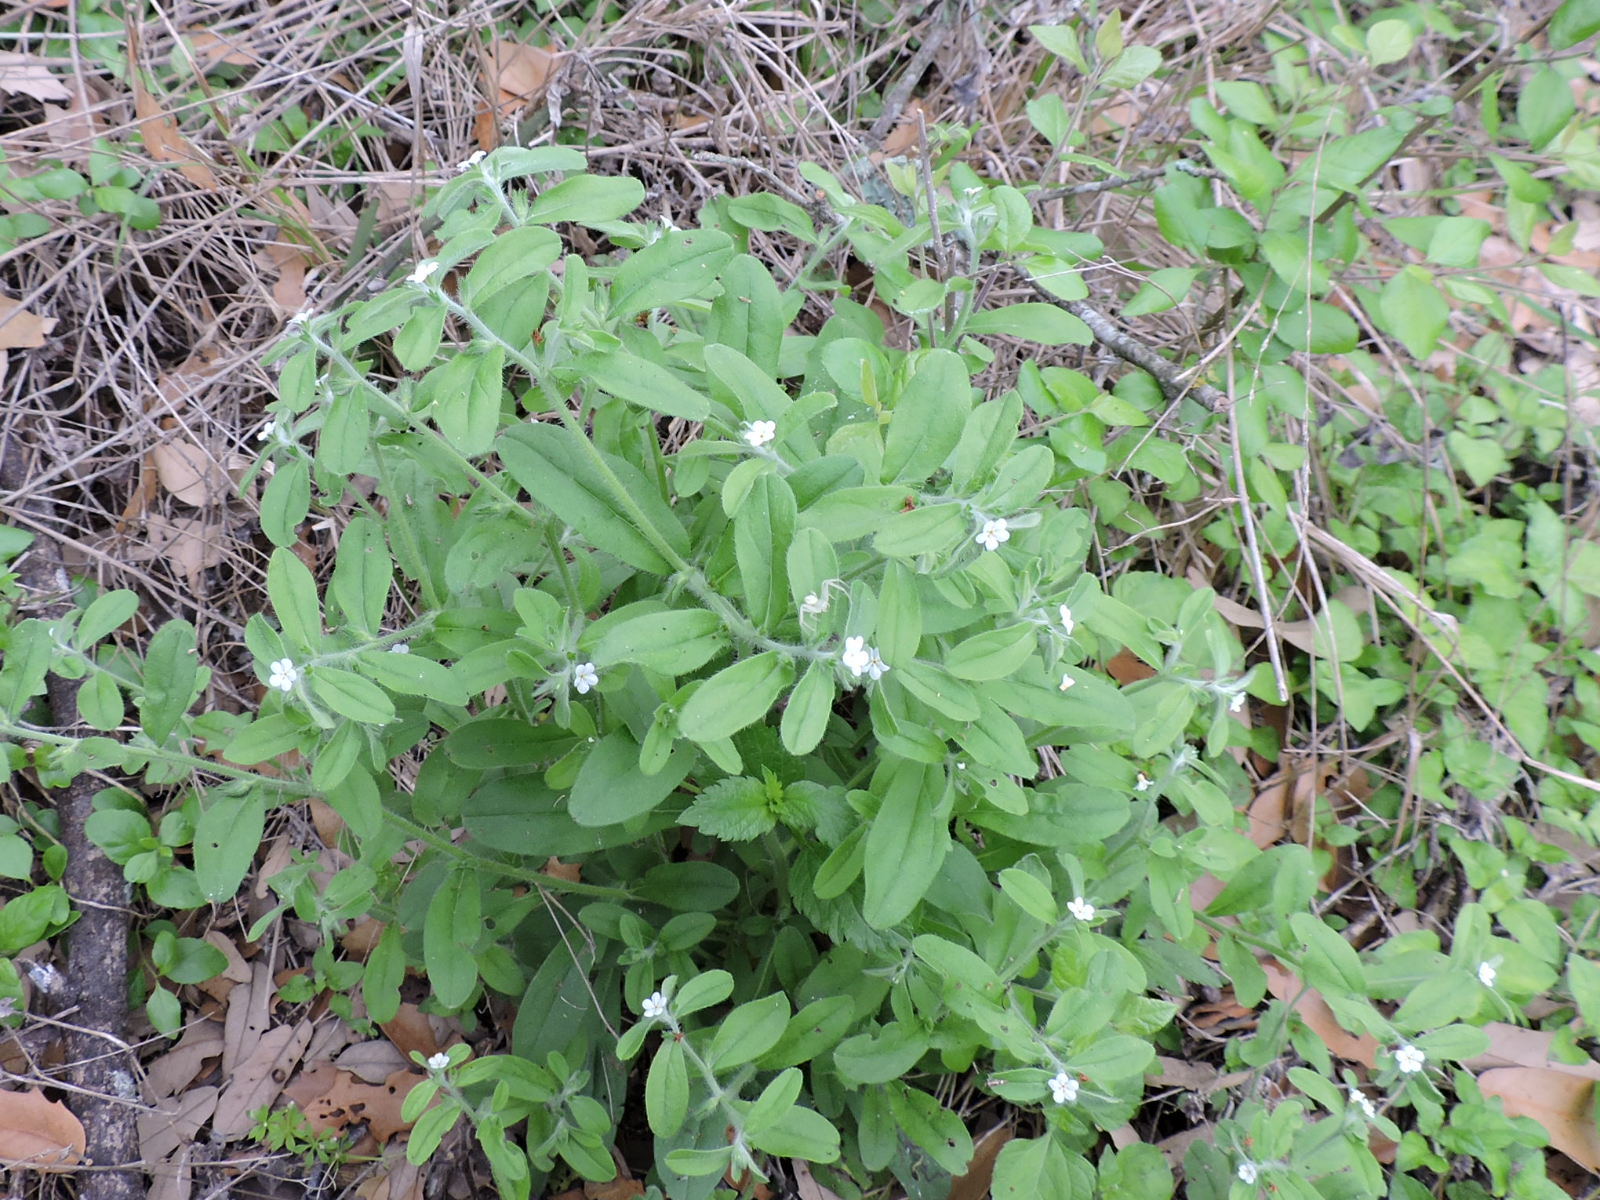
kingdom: Plantae
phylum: Tracheophyta
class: Magnoliopsida
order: Boraginales
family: Boraginaceae
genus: Lithospermum
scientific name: Lithospermum matamorense
